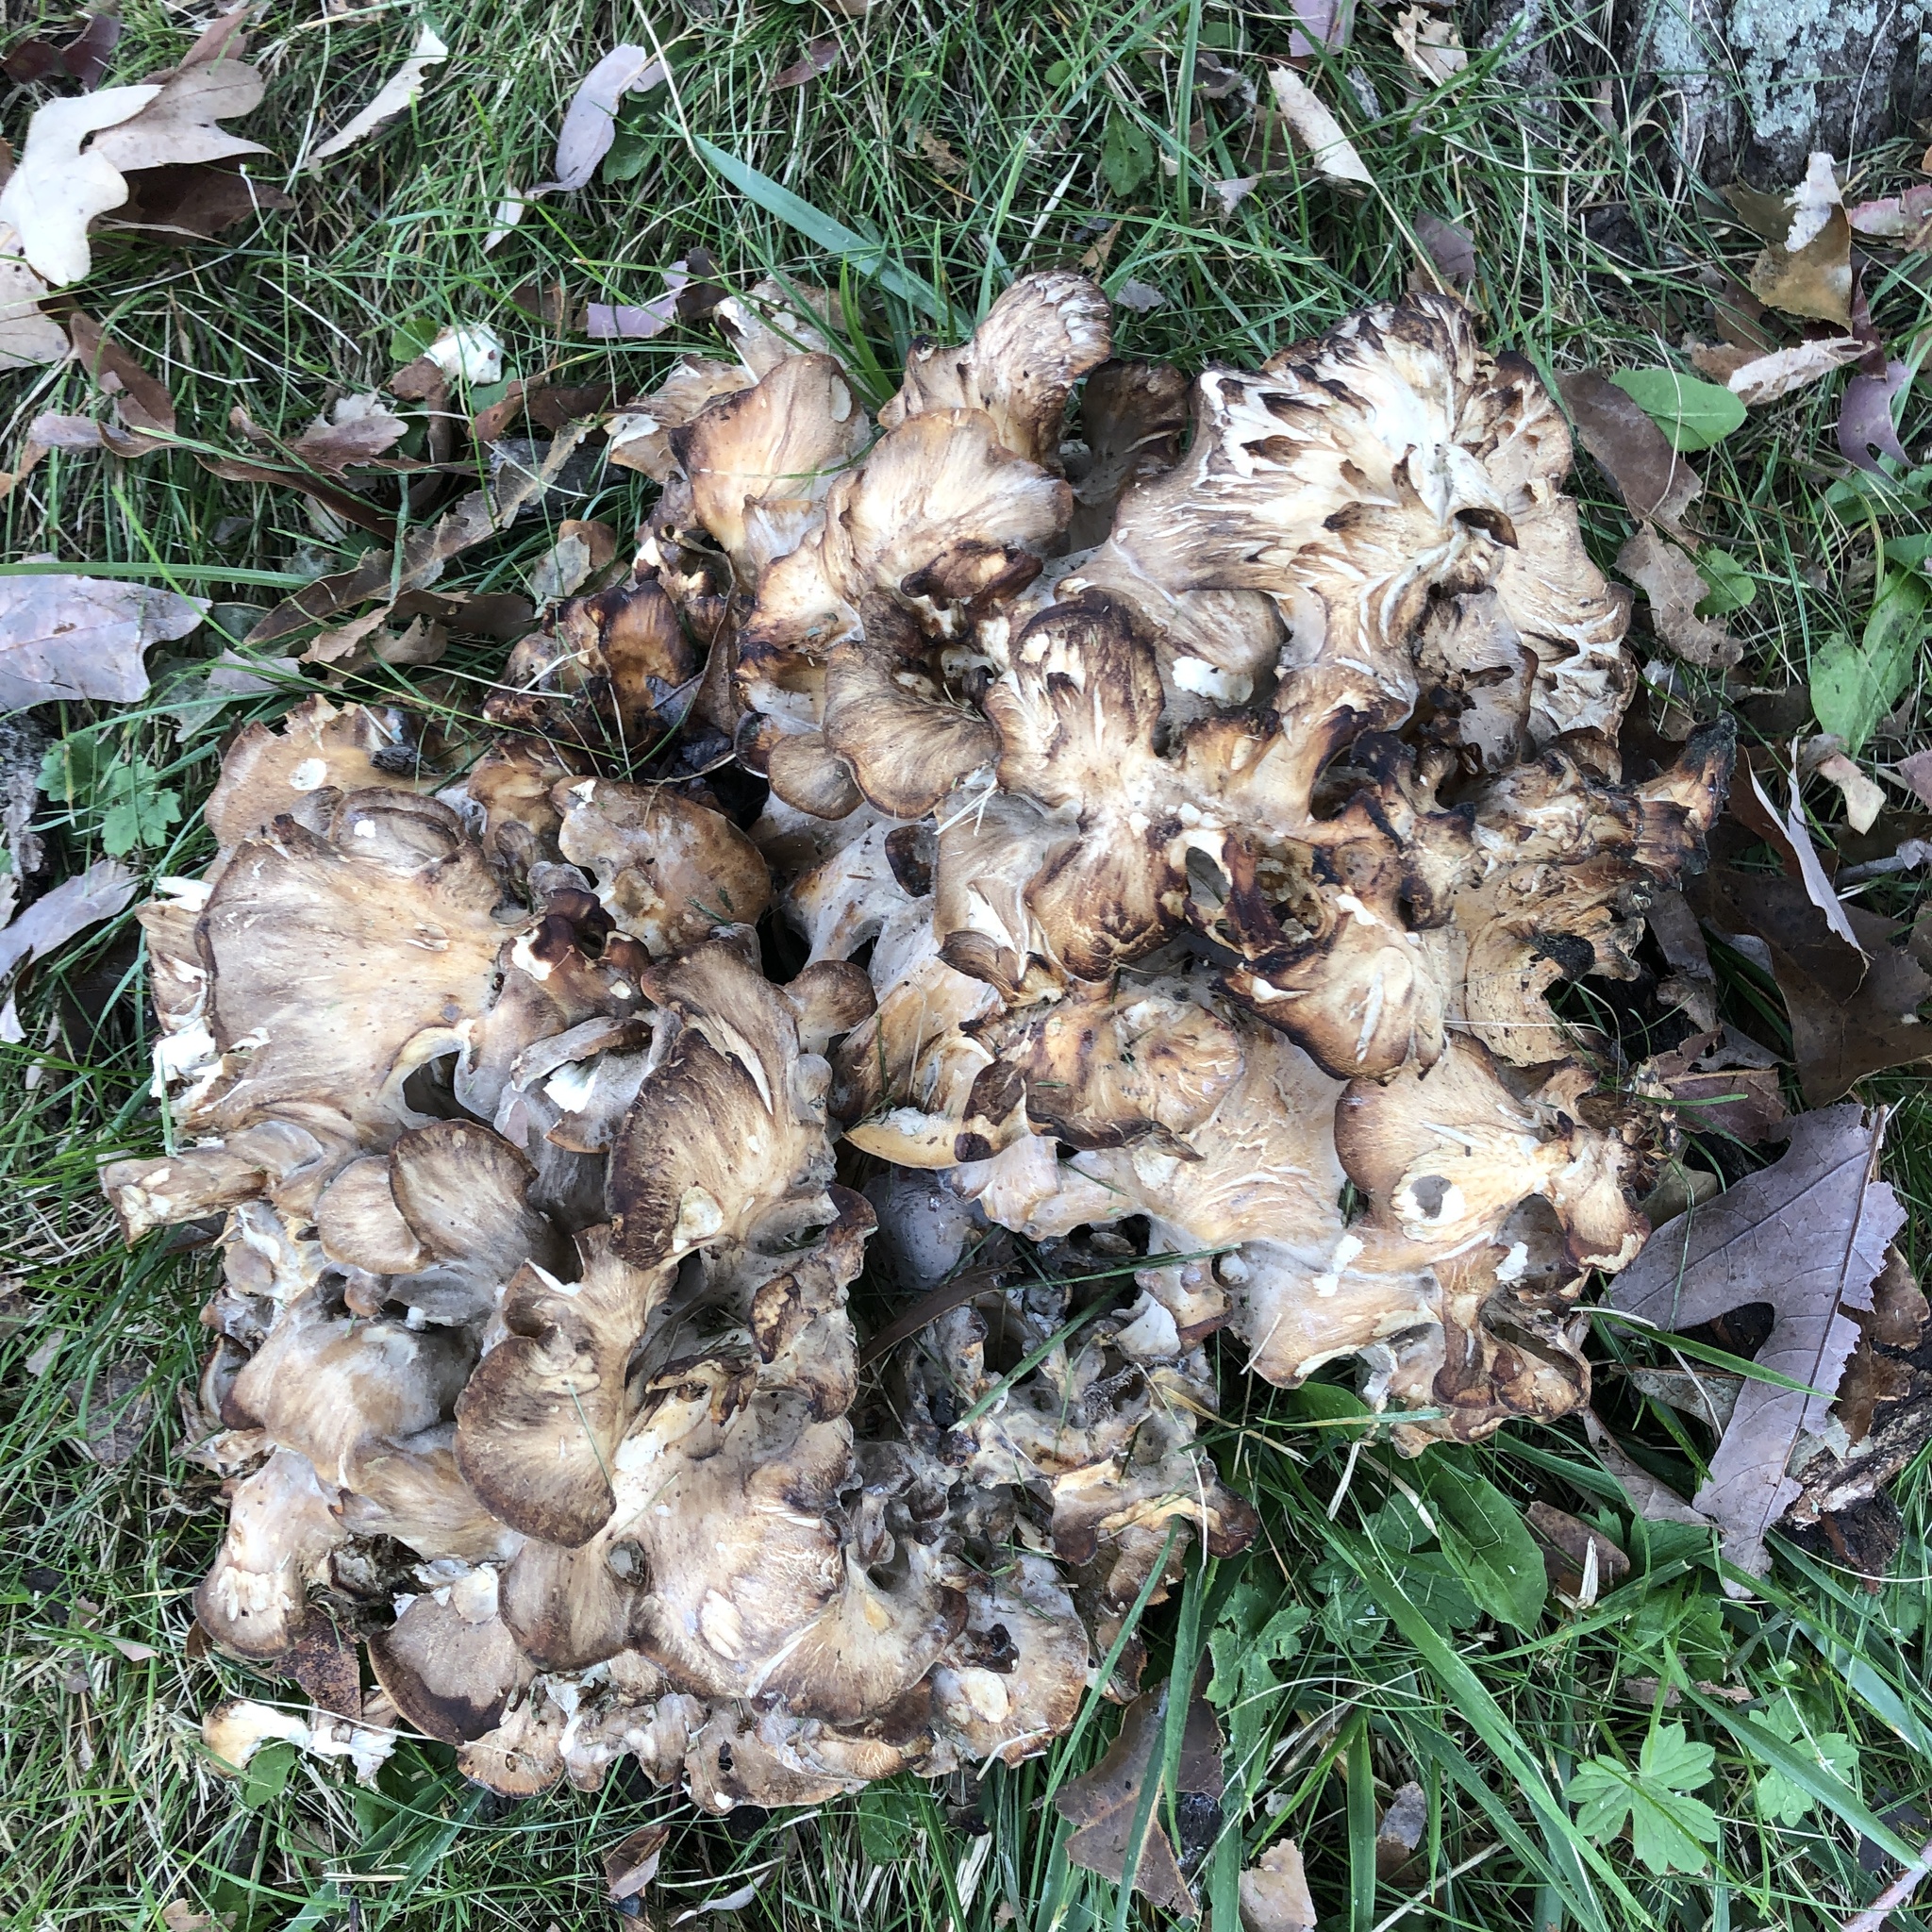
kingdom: Fungi
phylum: Basidiomycota
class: Agaricomycetes
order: Polyporales
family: Grifolaceae
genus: Grifola
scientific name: Grifola frondosa
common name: Hen of the woods
